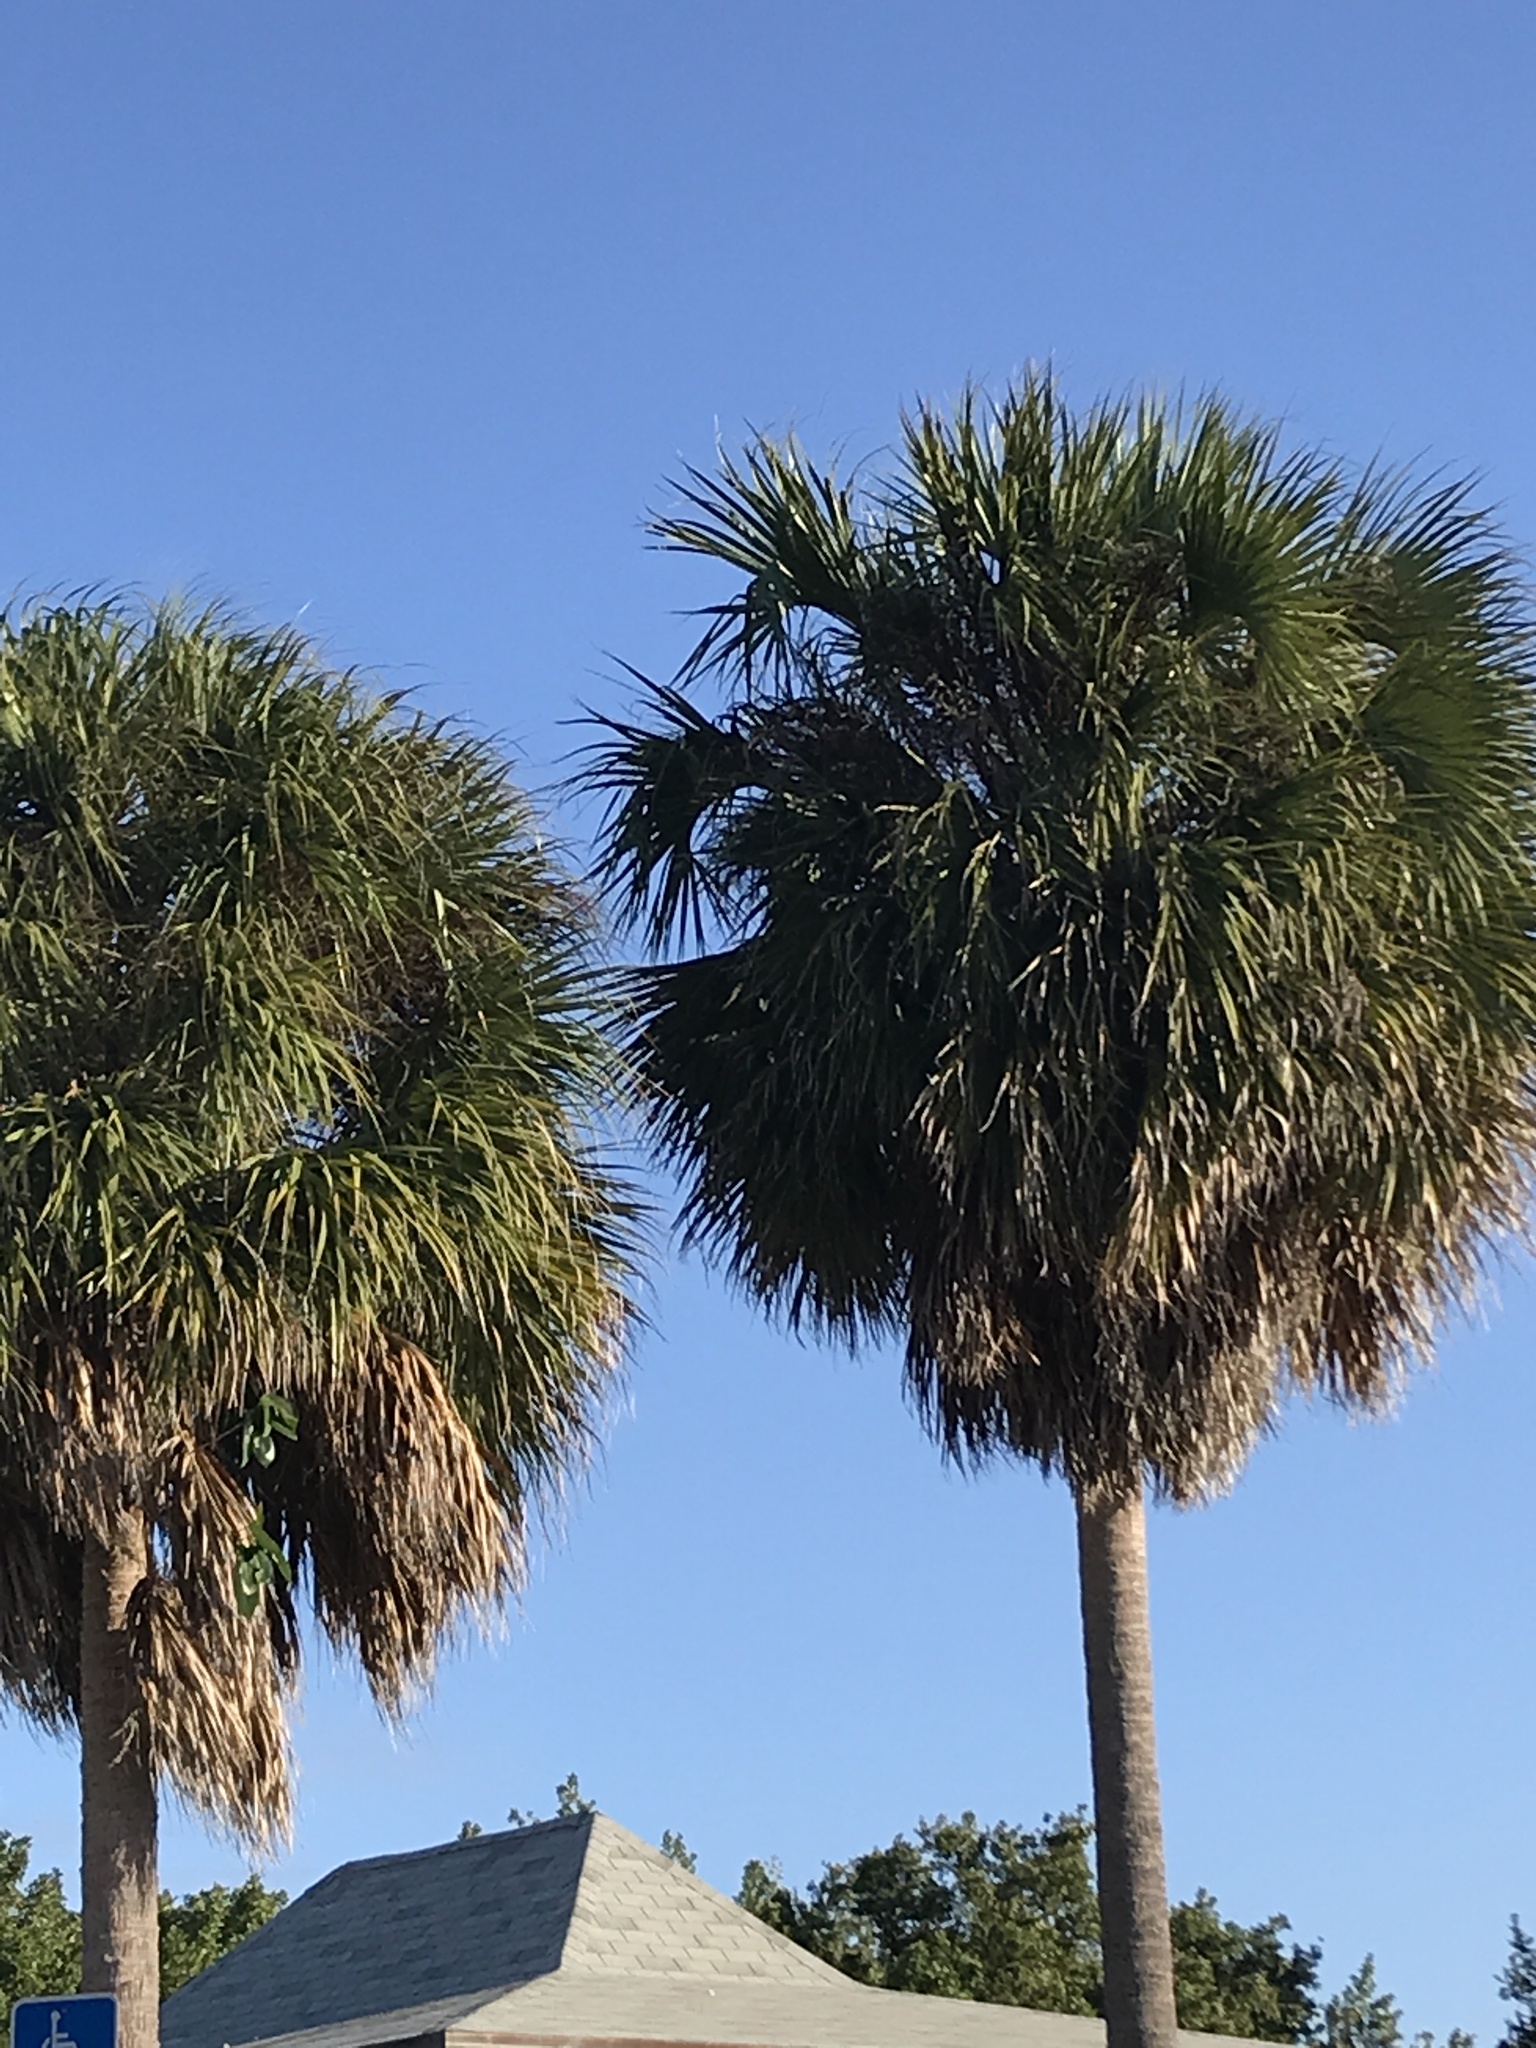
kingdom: Plantae
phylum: Tracheophyta
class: Liliopsida
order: Arecales
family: Arecaceae
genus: Sabal
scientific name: Sabal palmetto
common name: Blue palmetto
